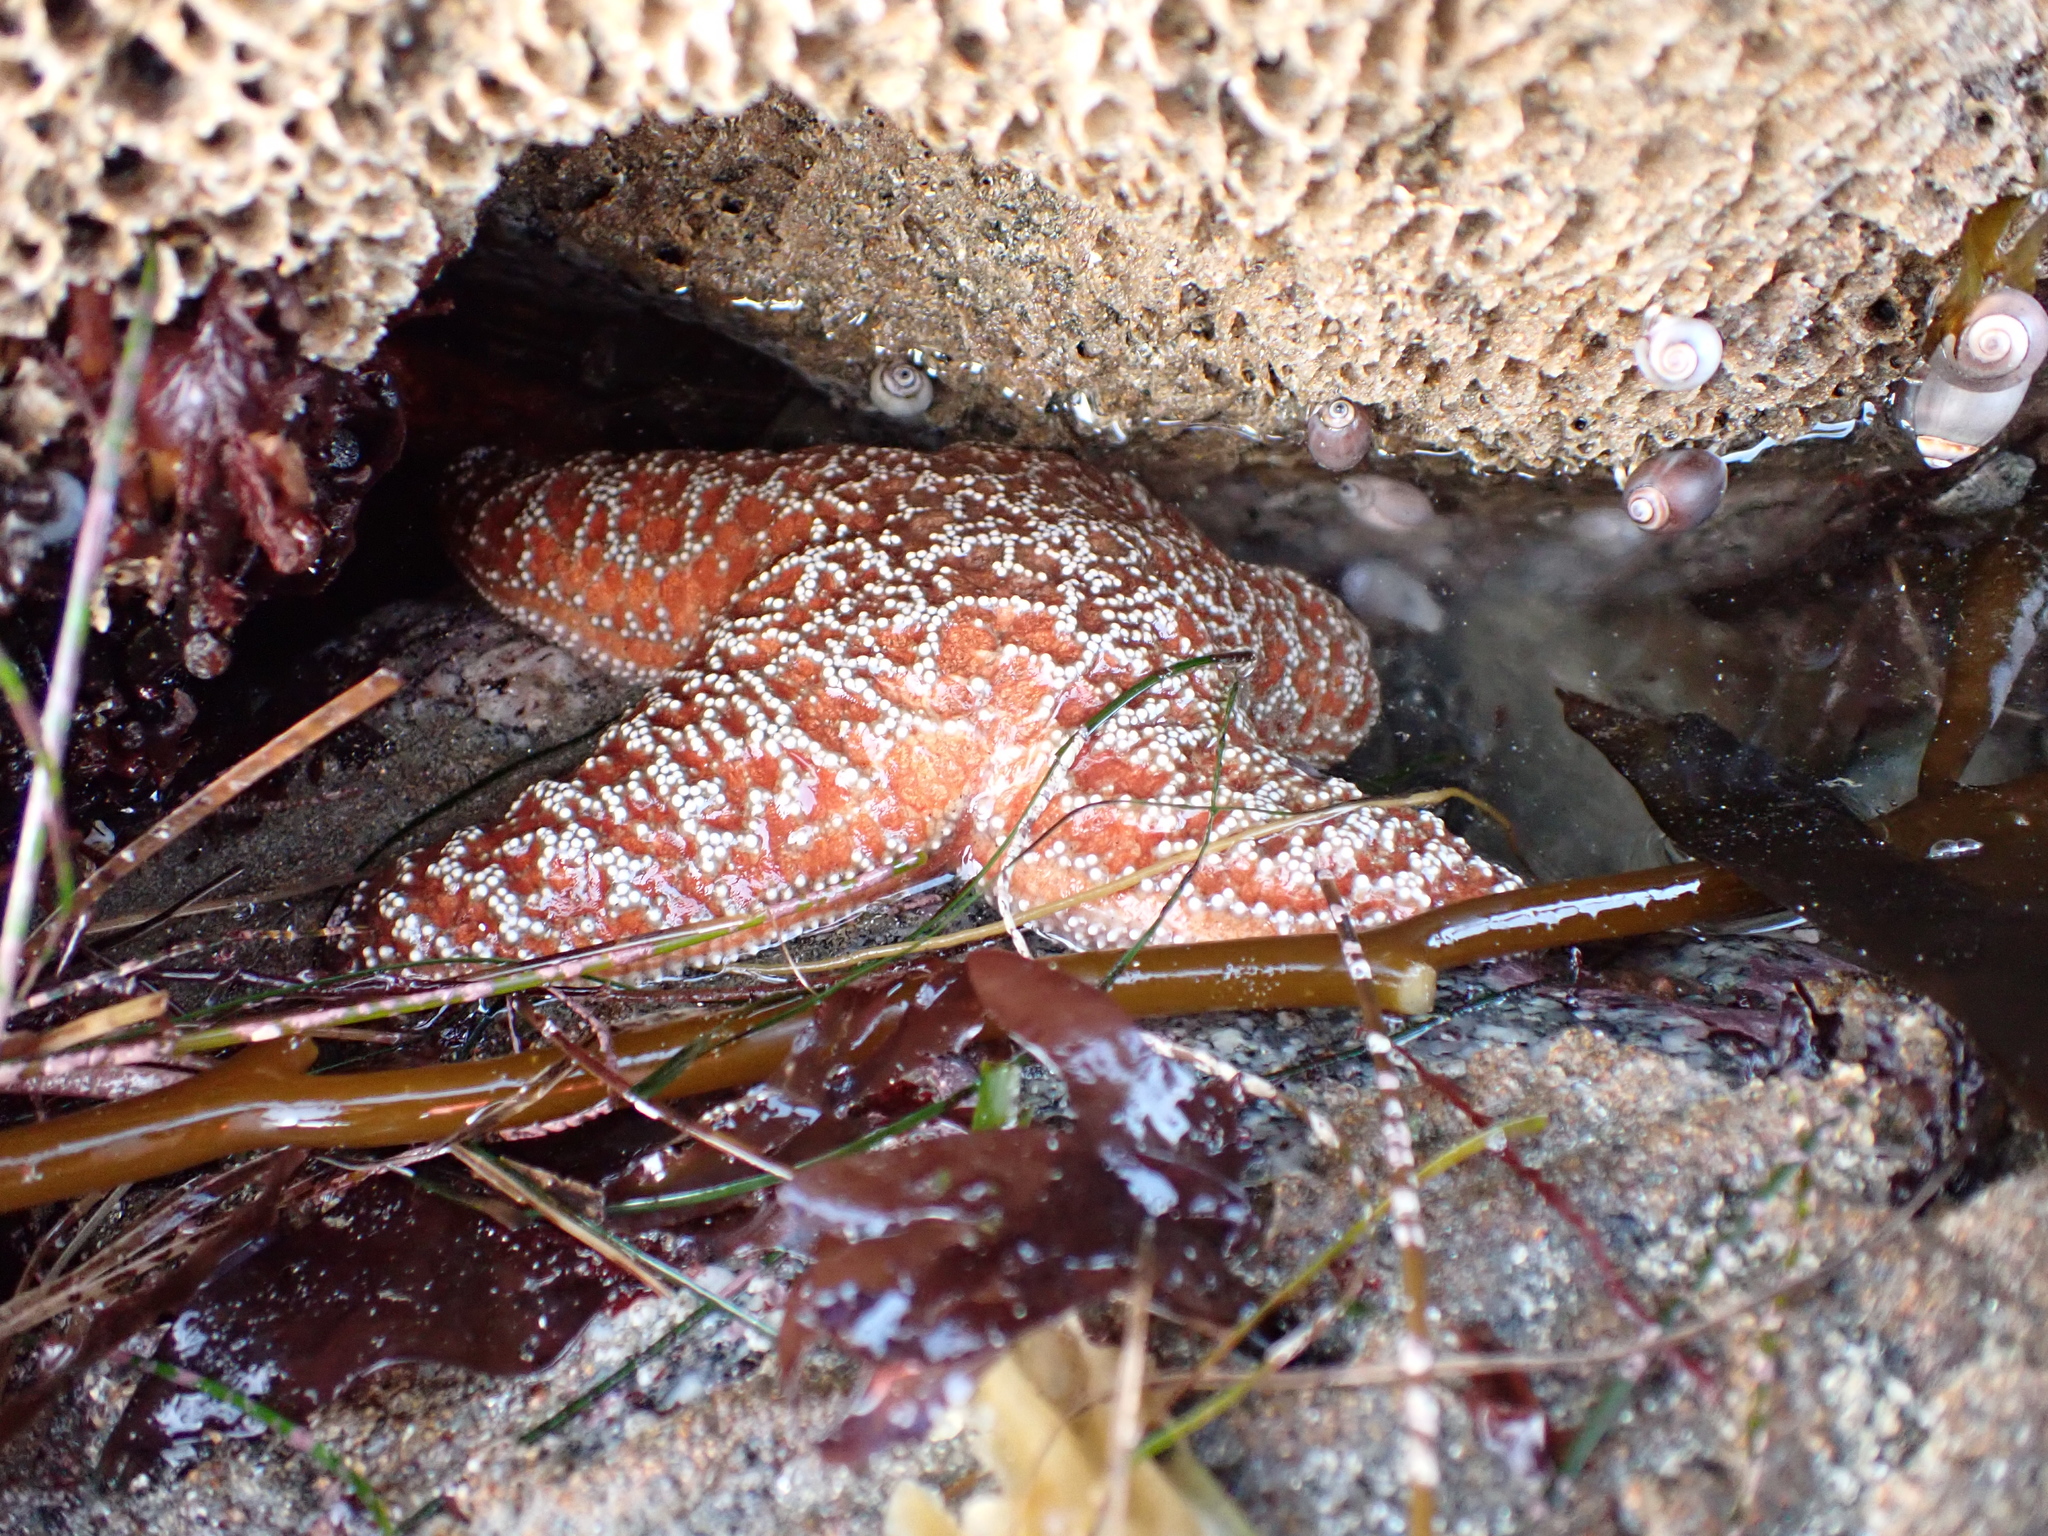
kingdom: Animalia
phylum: Echinodermata
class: Asteroidea
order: Forcipulatida
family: Asteriidae
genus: Pisaster
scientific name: Pisaster ochraceus
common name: Ochre stars
